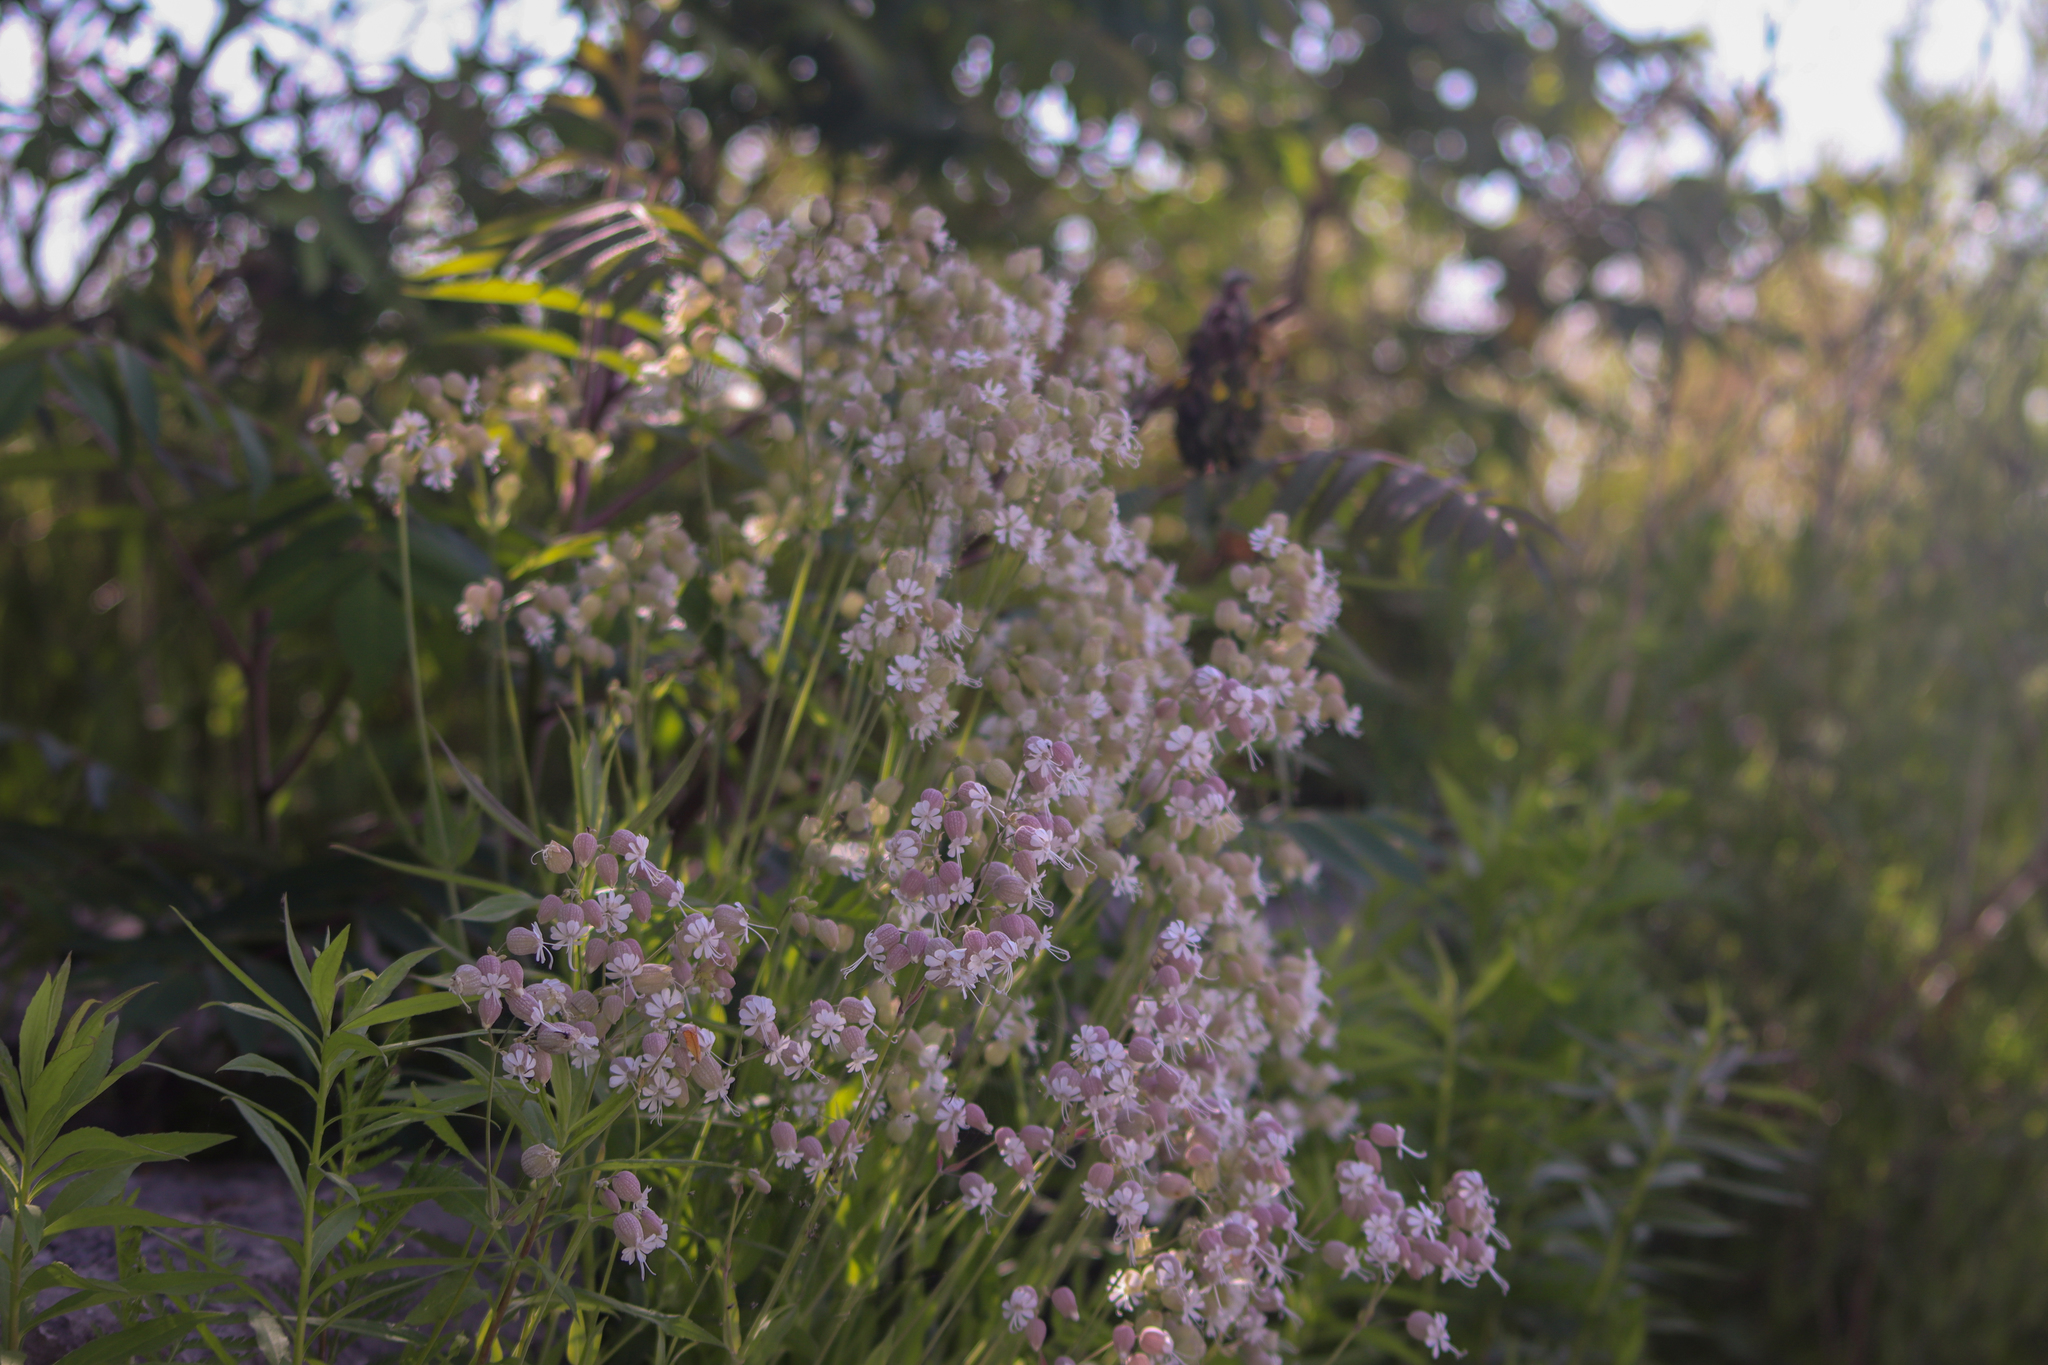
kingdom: Plantae
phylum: Tracheophyta
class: Magnoliopsida
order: Caryophyllales
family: Caryophyllaceae
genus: Silene
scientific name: Silene vulgaris
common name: Bladder campion
